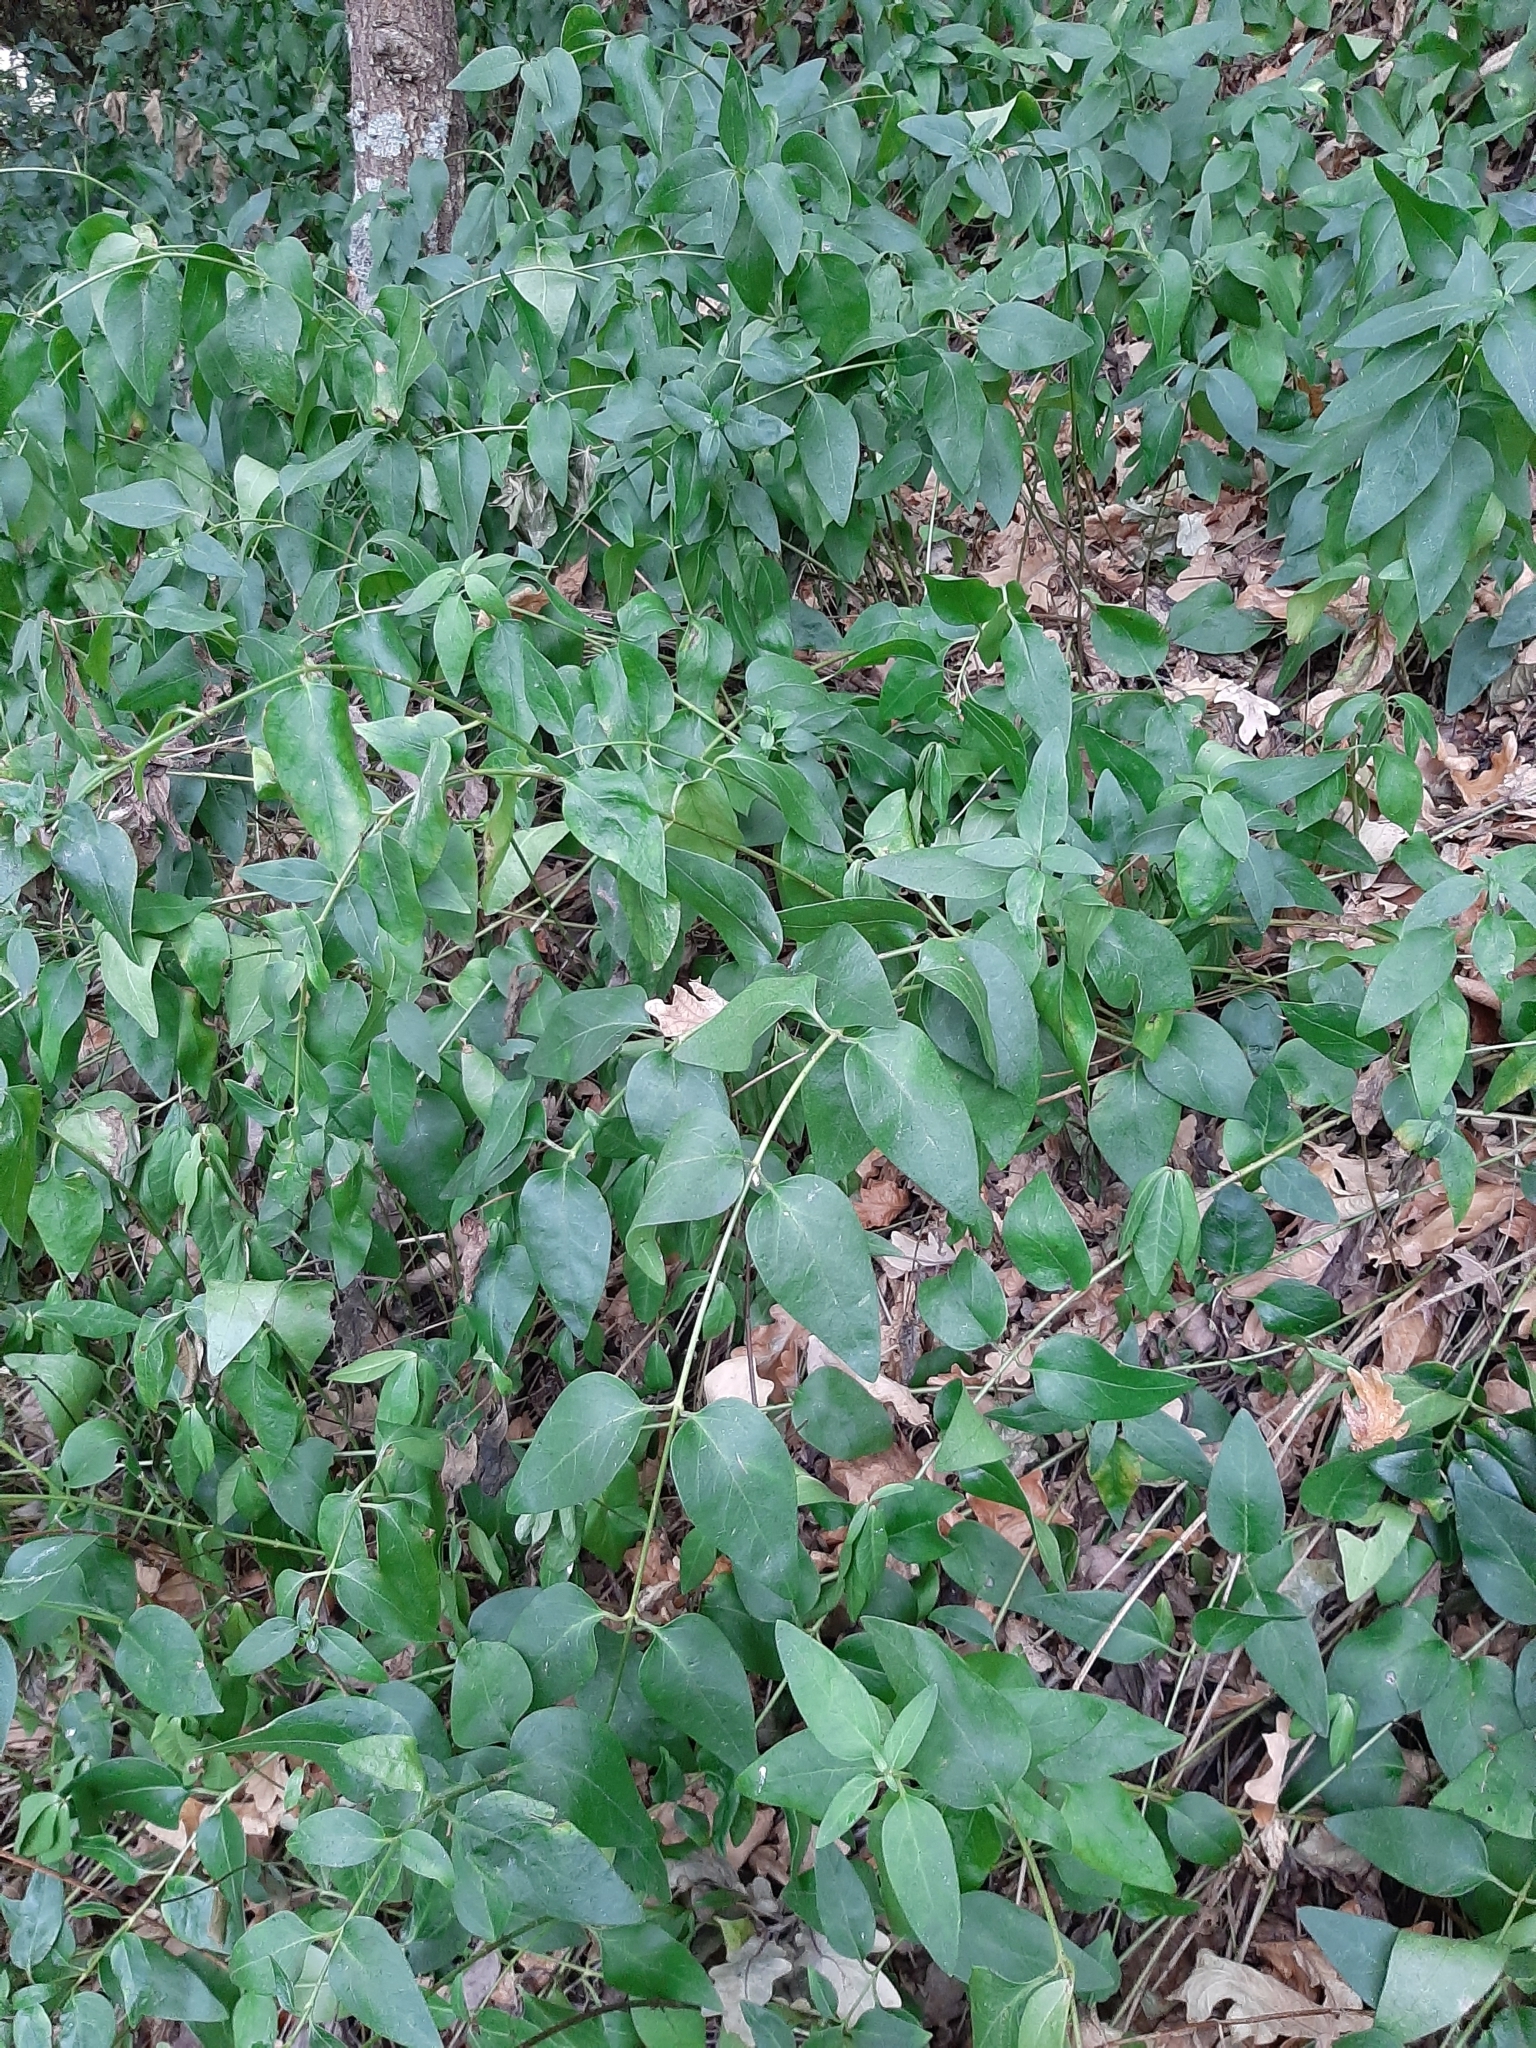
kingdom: Plantae
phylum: Tracheophyta
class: Magnoliopsida
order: Gentianales
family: Apocynaceae
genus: Vinca
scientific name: Vinca major
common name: Greater periwinkle
